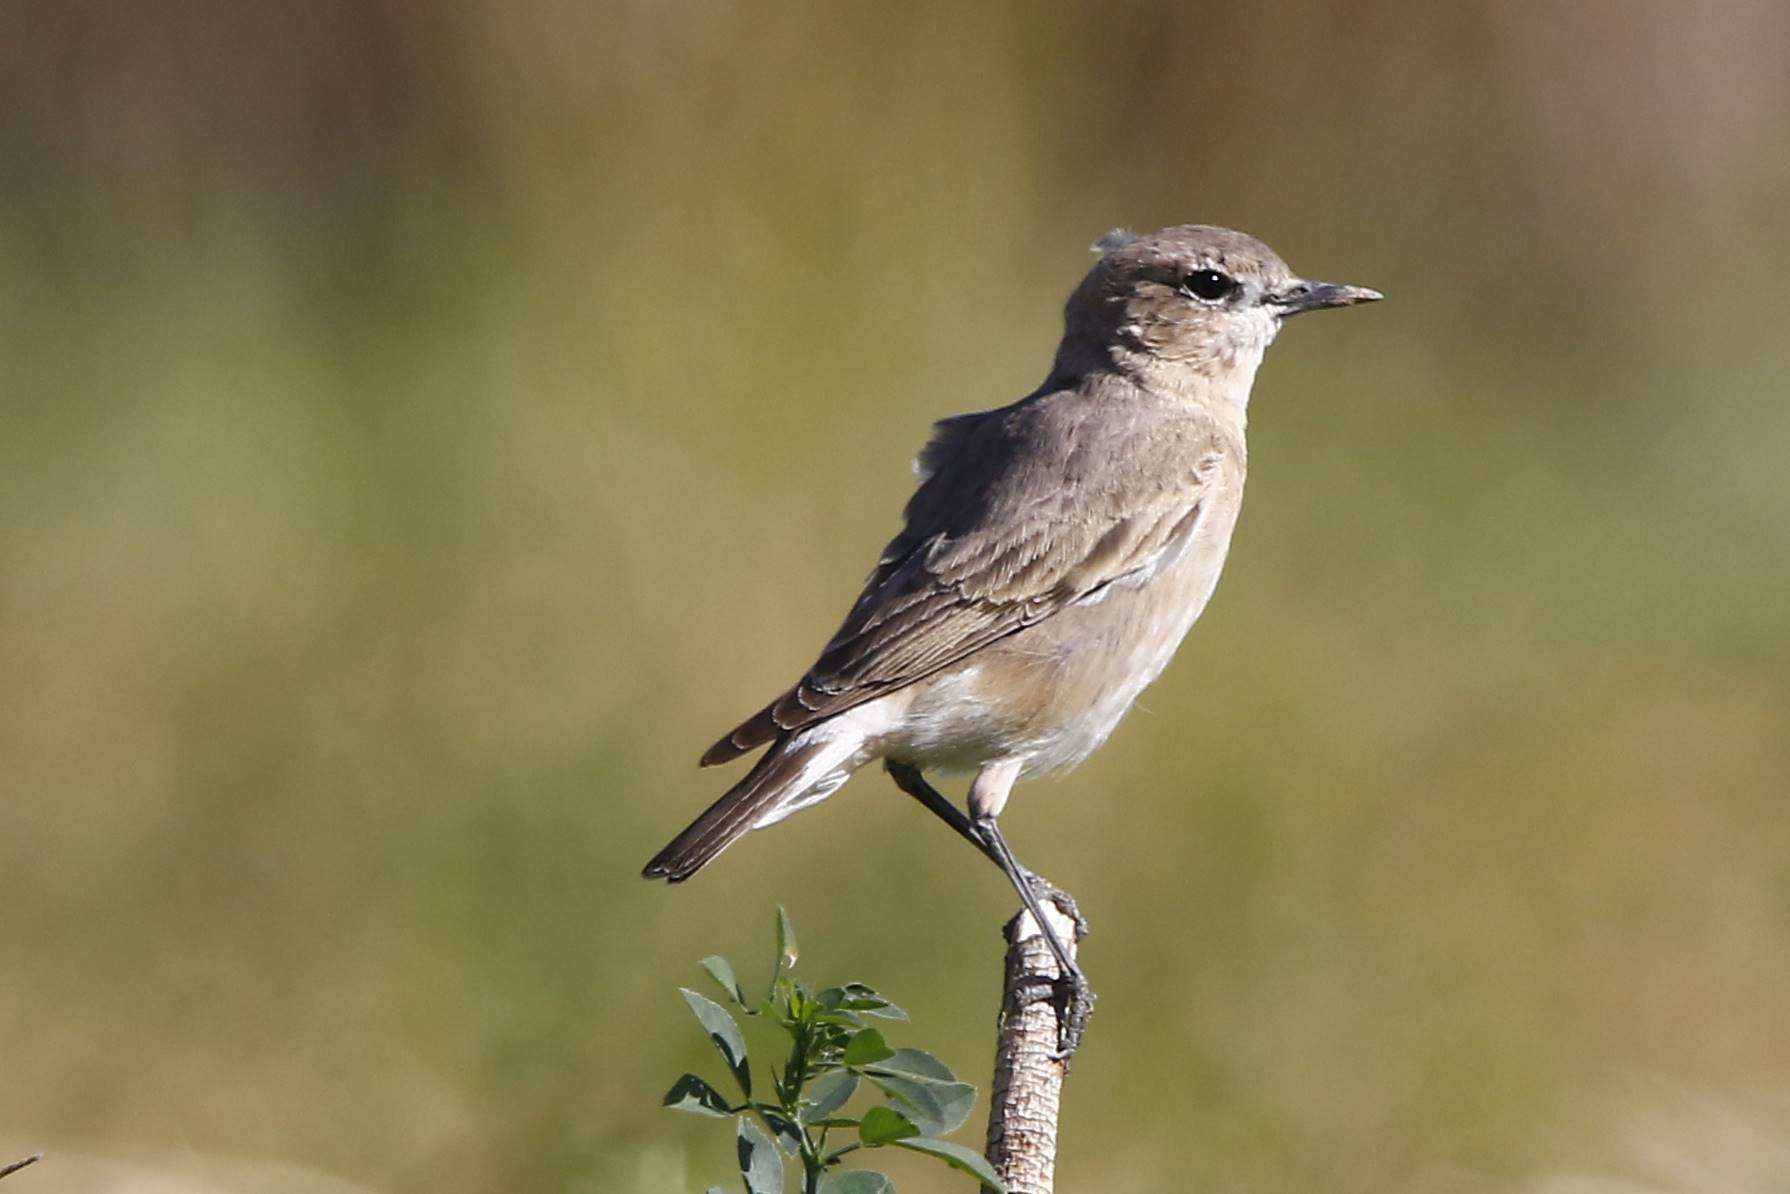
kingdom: Animalia
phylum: Chordata
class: Aves
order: Passeriformes
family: Muscicapidae
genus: Oenanthe
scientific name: Oenanthe isabellina
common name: Isabelline wheatear
